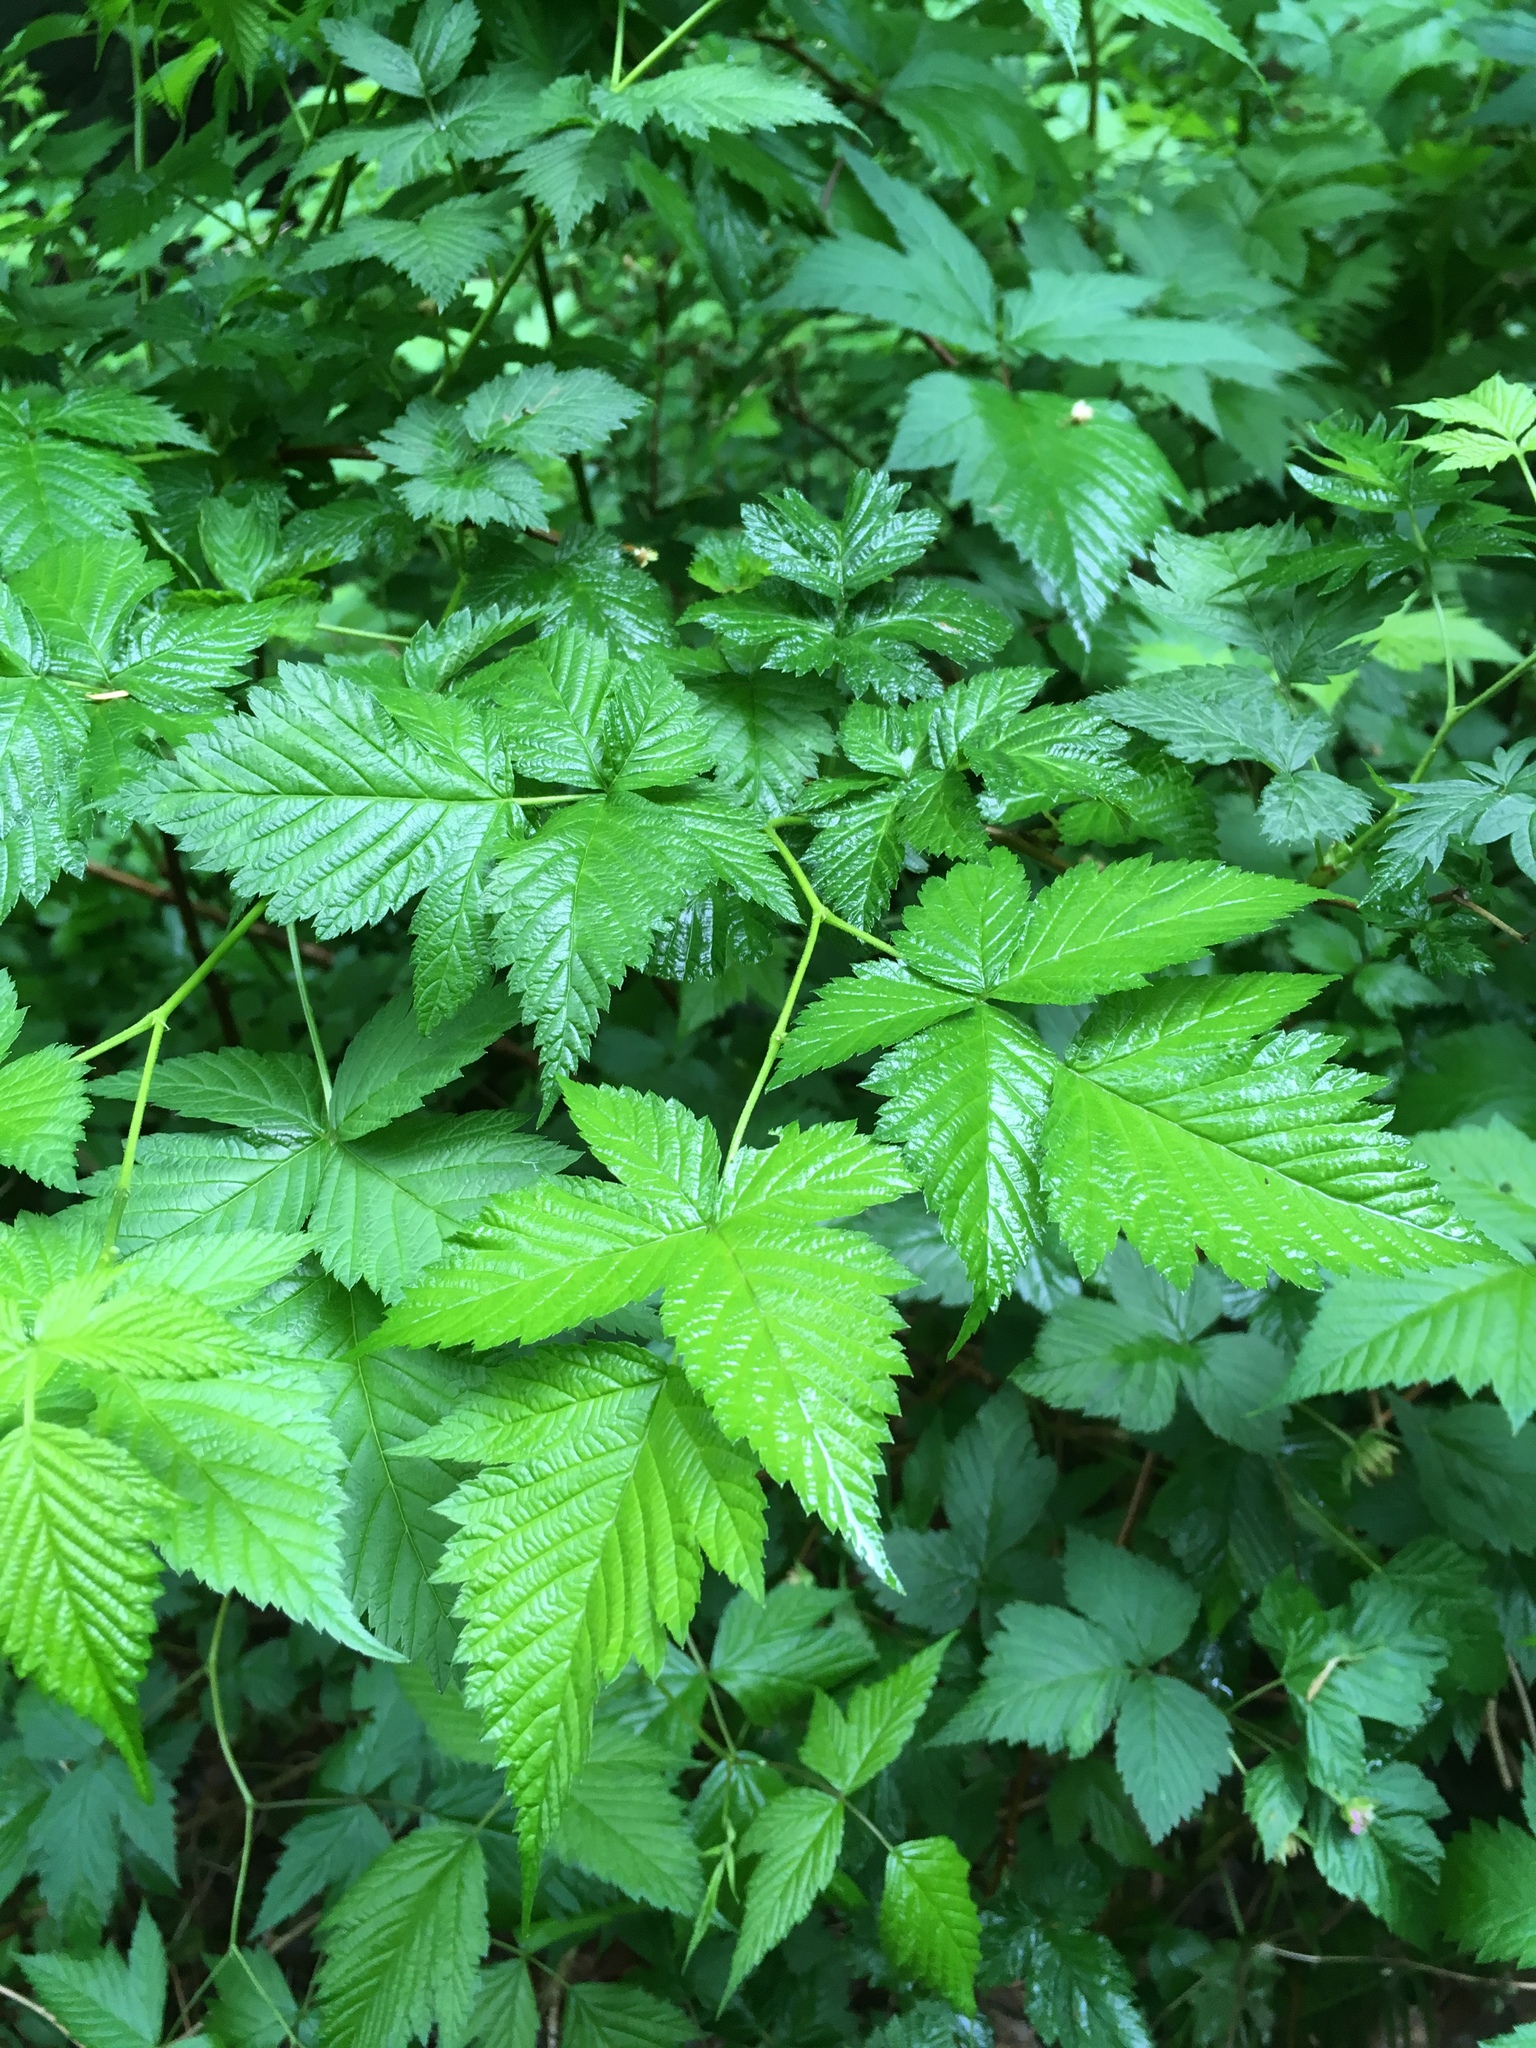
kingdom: Plantae
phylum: Tracheophyta
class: Magnoliopsida
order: Rosales
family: Rosaceae
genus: Rubus
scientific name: Rubus spectabilis
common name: Salmonberry
